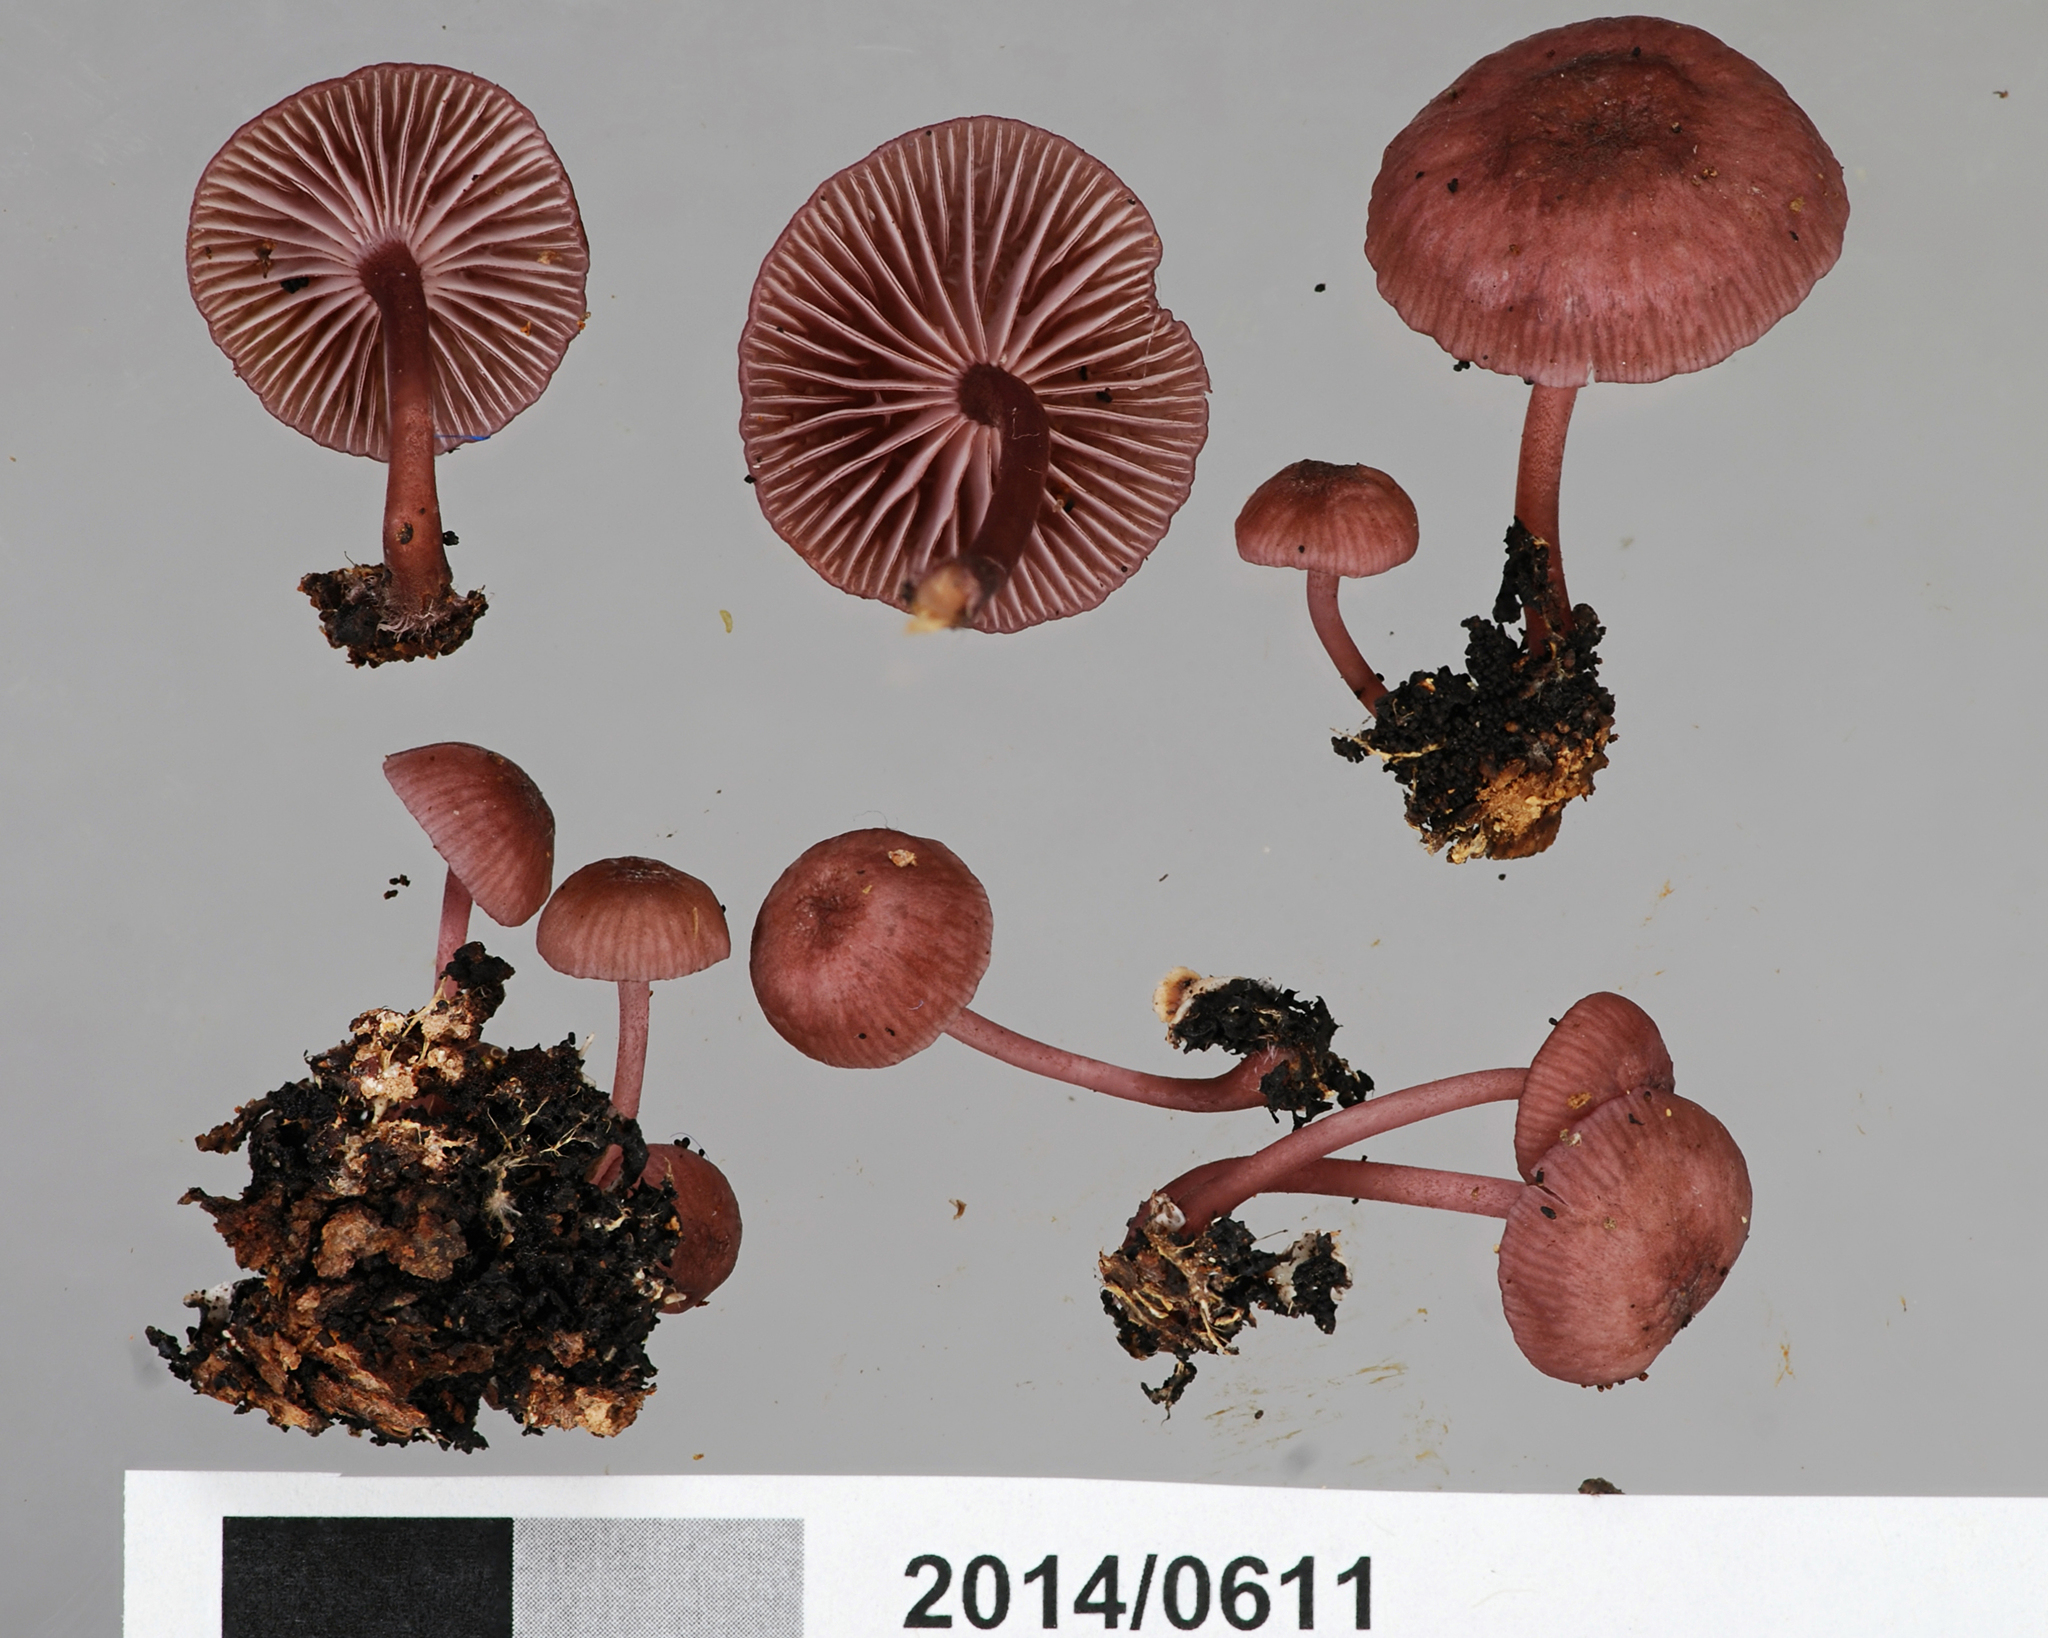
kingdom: Fungi
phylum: Basidiomycota
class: Agaricomycetes
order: Agaricales
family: Mycenaceae
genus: Mycena
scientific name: Mycena rubroglobulosa
